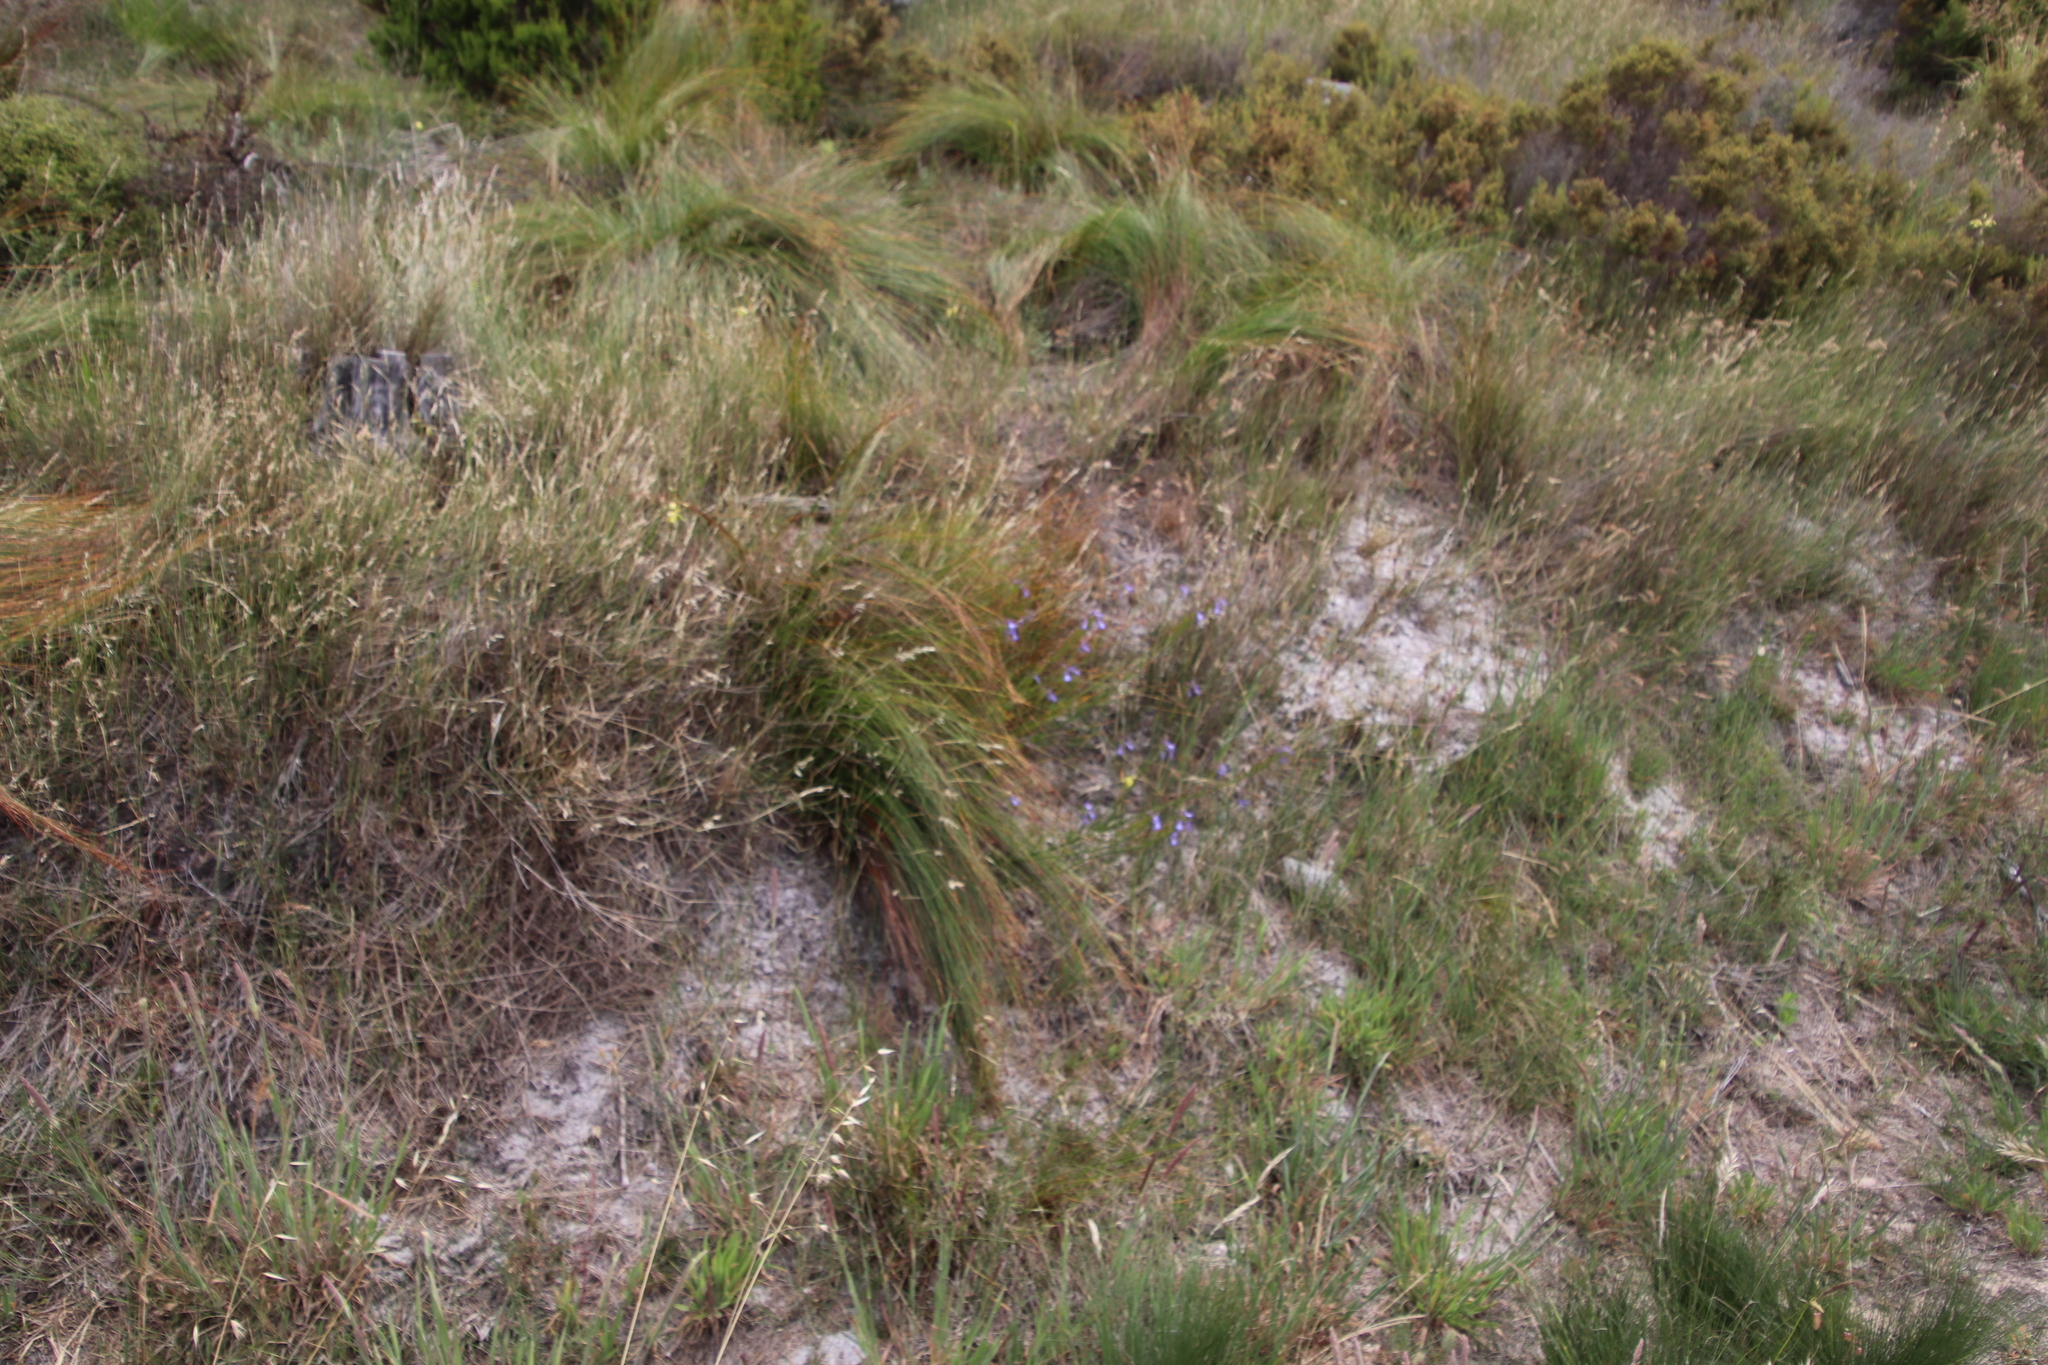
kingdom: Plantae
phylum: Tracheophyta
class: Magnoliopsida
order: Asterales
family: Campanulaceae
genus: Lobelia
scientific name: Lobelia comosa
